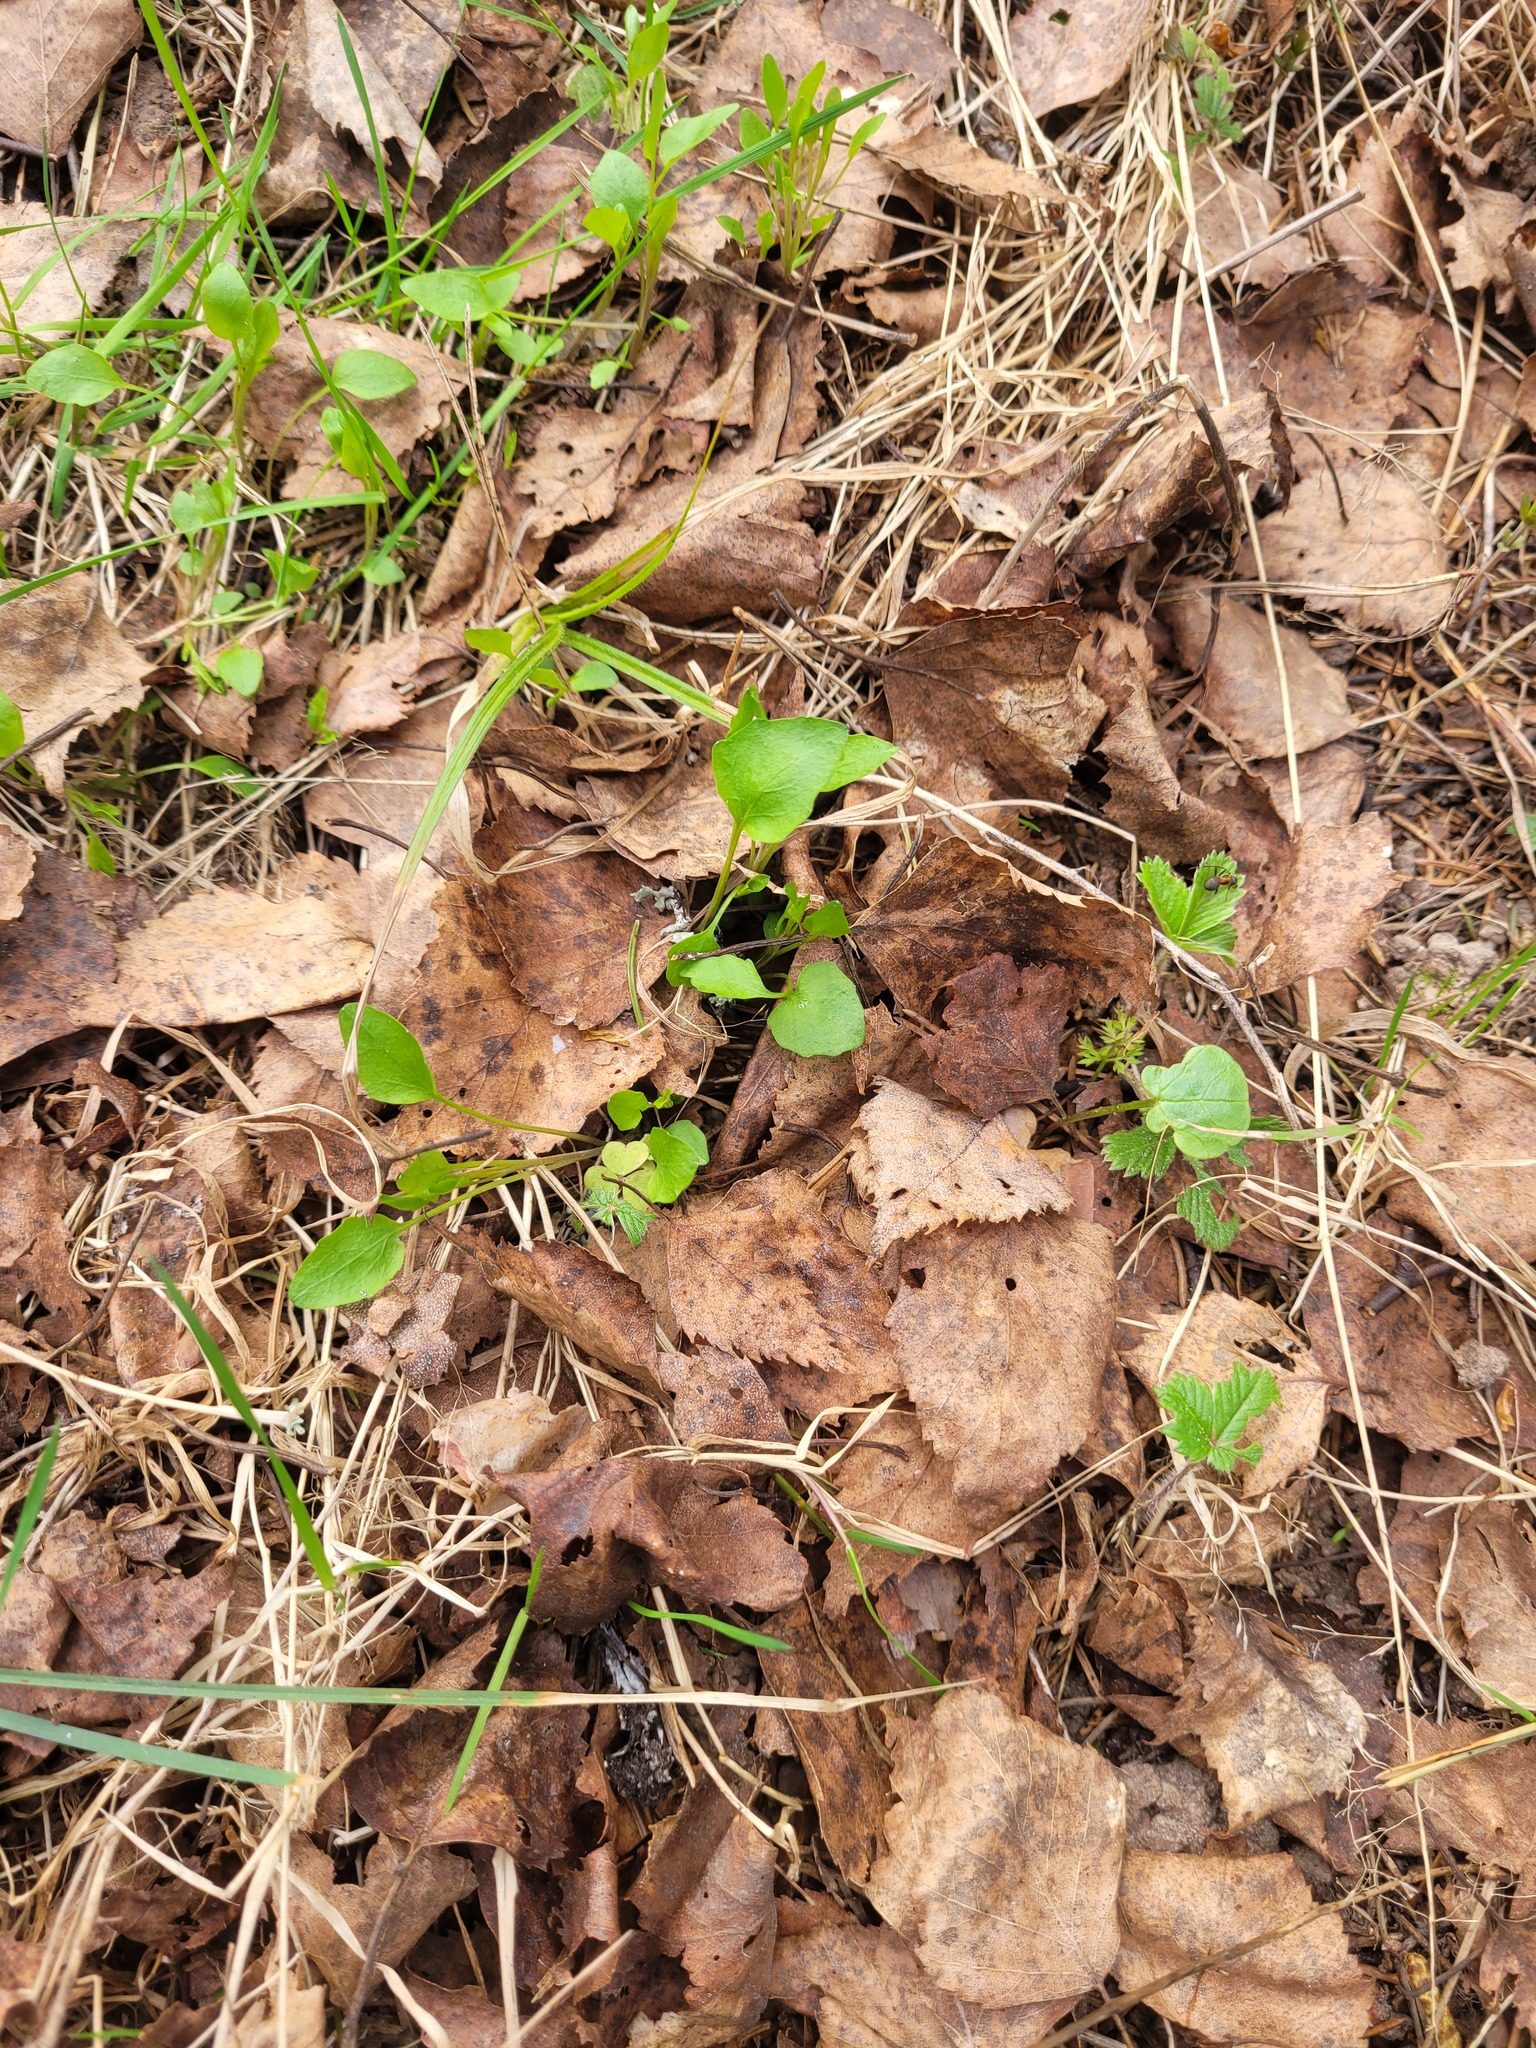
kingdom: Plantae
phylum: Tracheophyta
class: Magnoliopsida
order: Asterales
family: Campanulaceae
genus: Campanula
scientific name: Campanula rotundifolia
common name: Harebell
